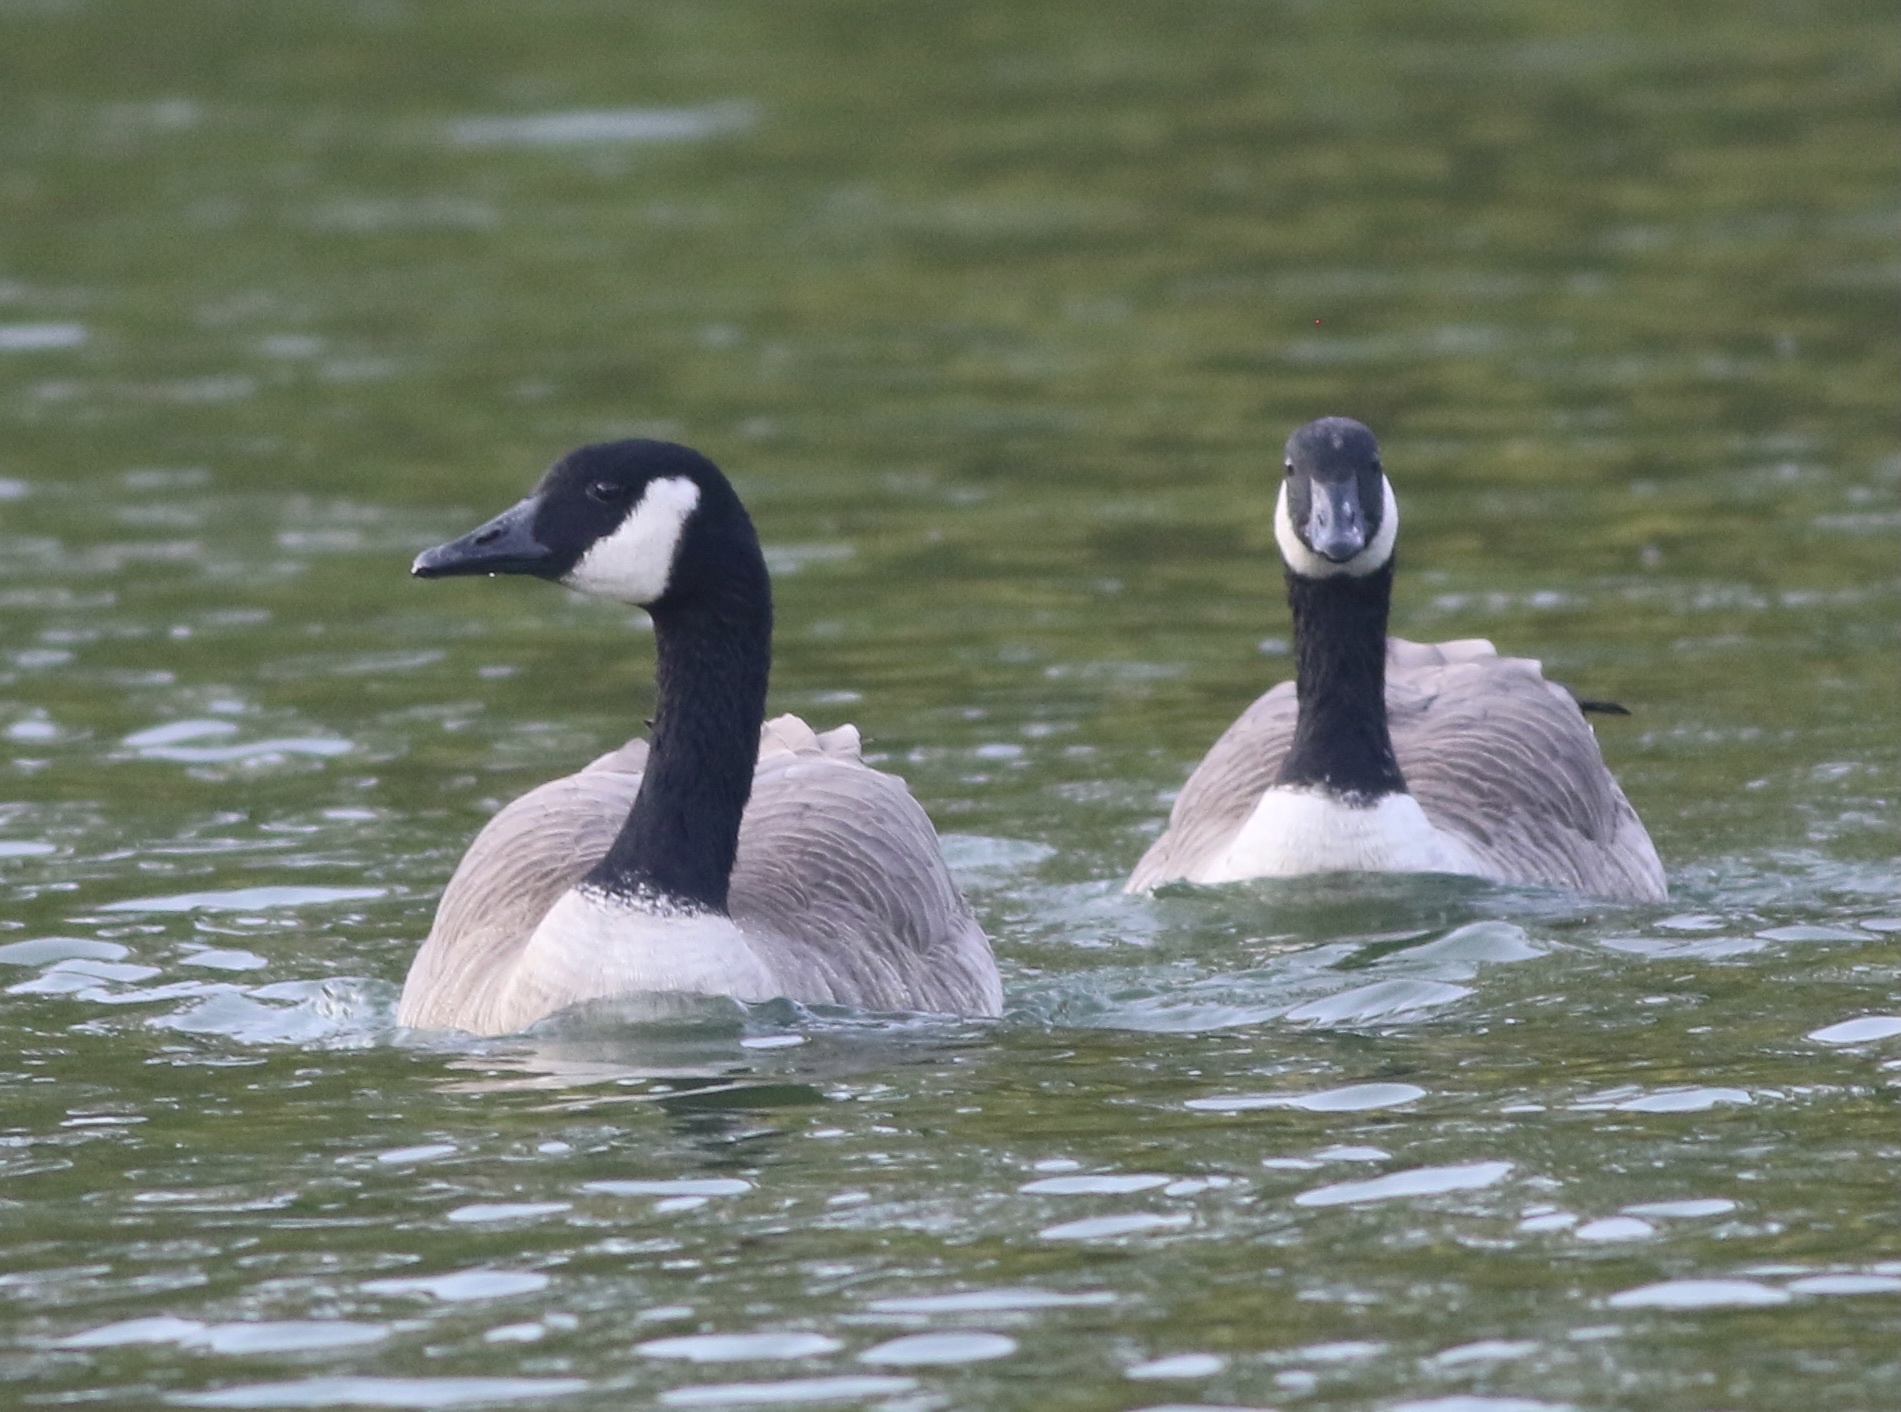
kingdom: Animalia
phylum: Chordata
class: Aves
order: Anseriformes
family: Anatidae
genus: Branta
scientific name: Branta canadensis
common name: Canada goose
